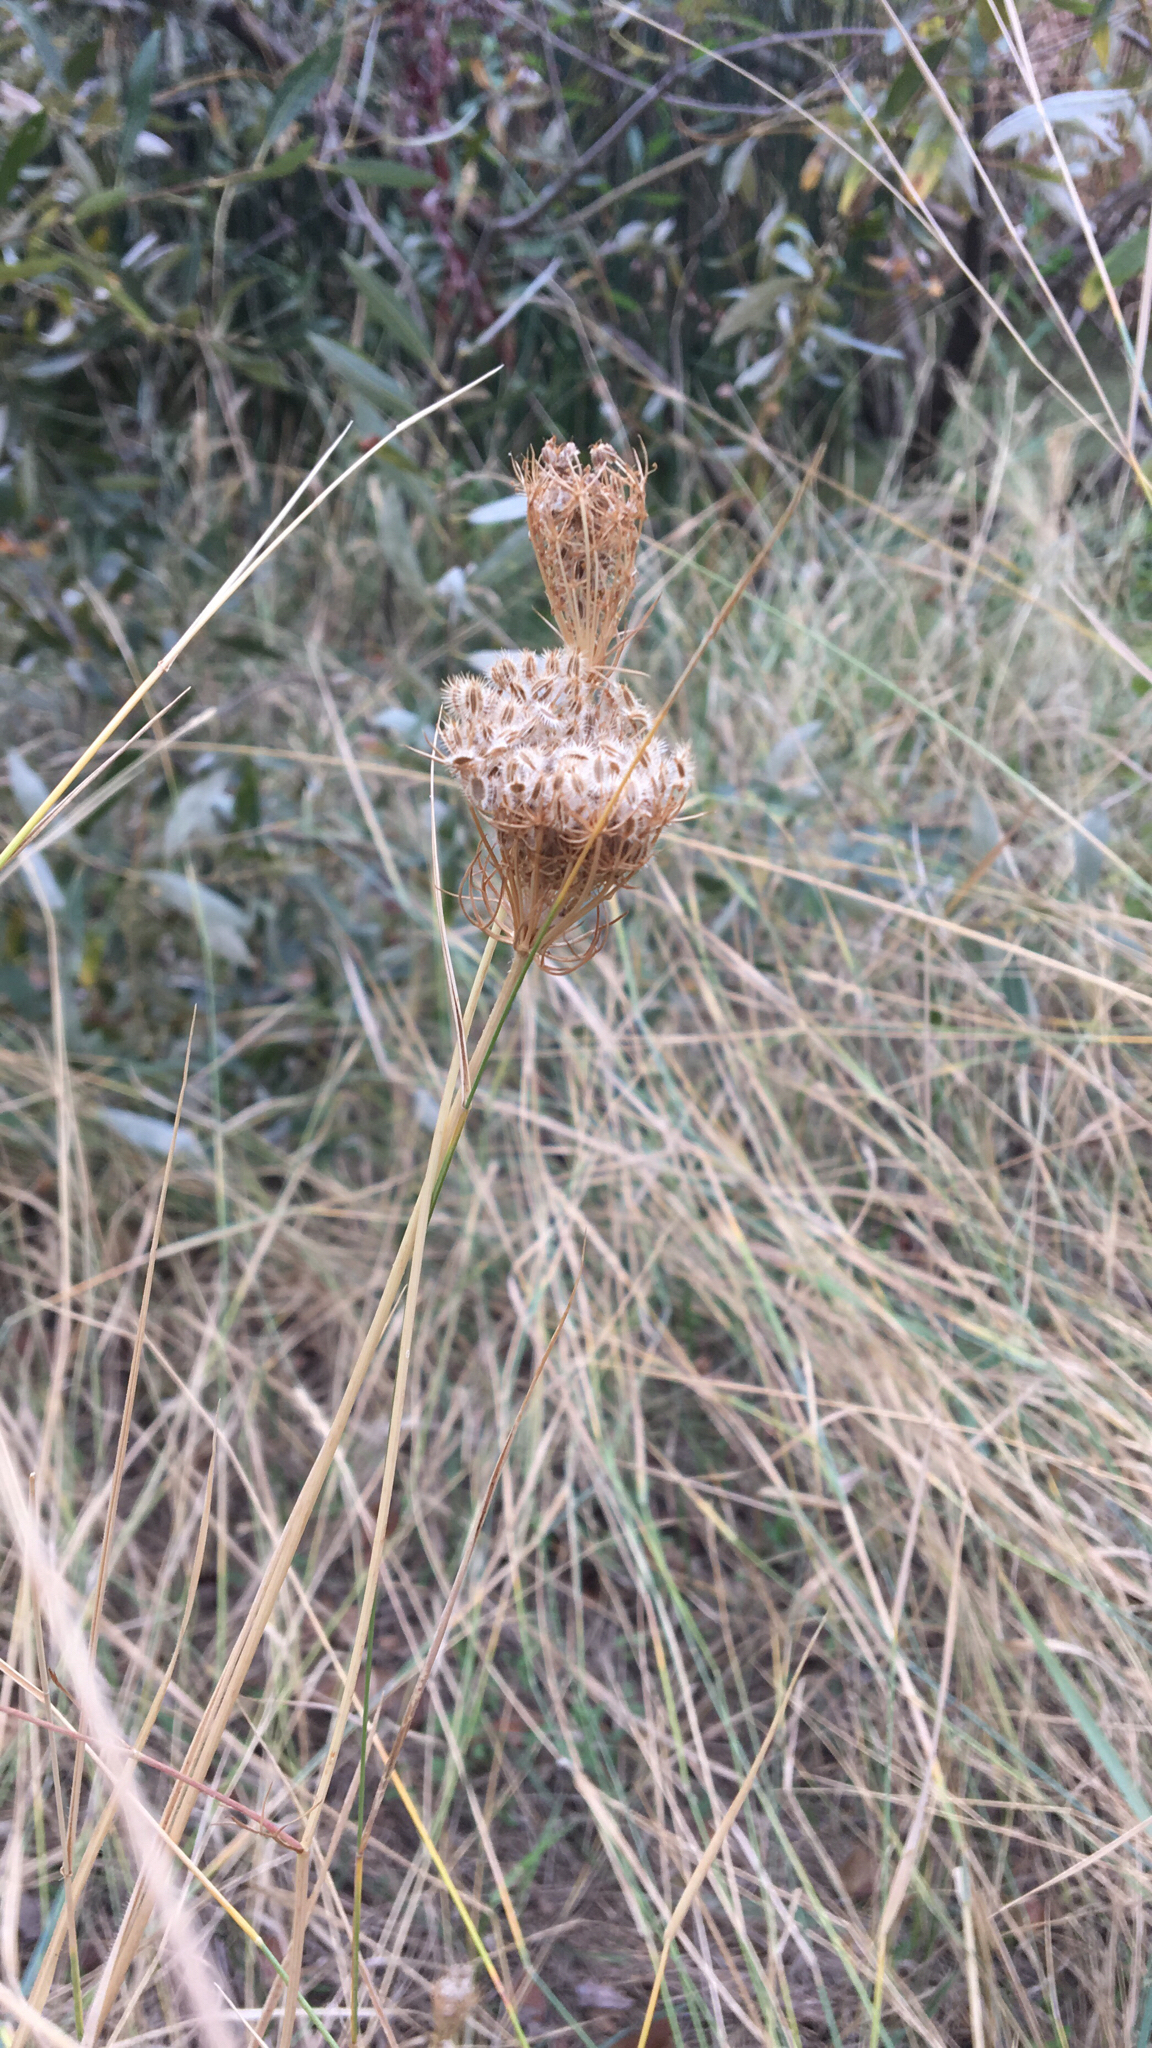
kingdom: Plantae
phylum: Tracheophyta
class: Magnoliopsida
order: Apiales
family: Apiaceae
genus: Daucus
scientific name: Daucus carota
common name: Wild carrot
